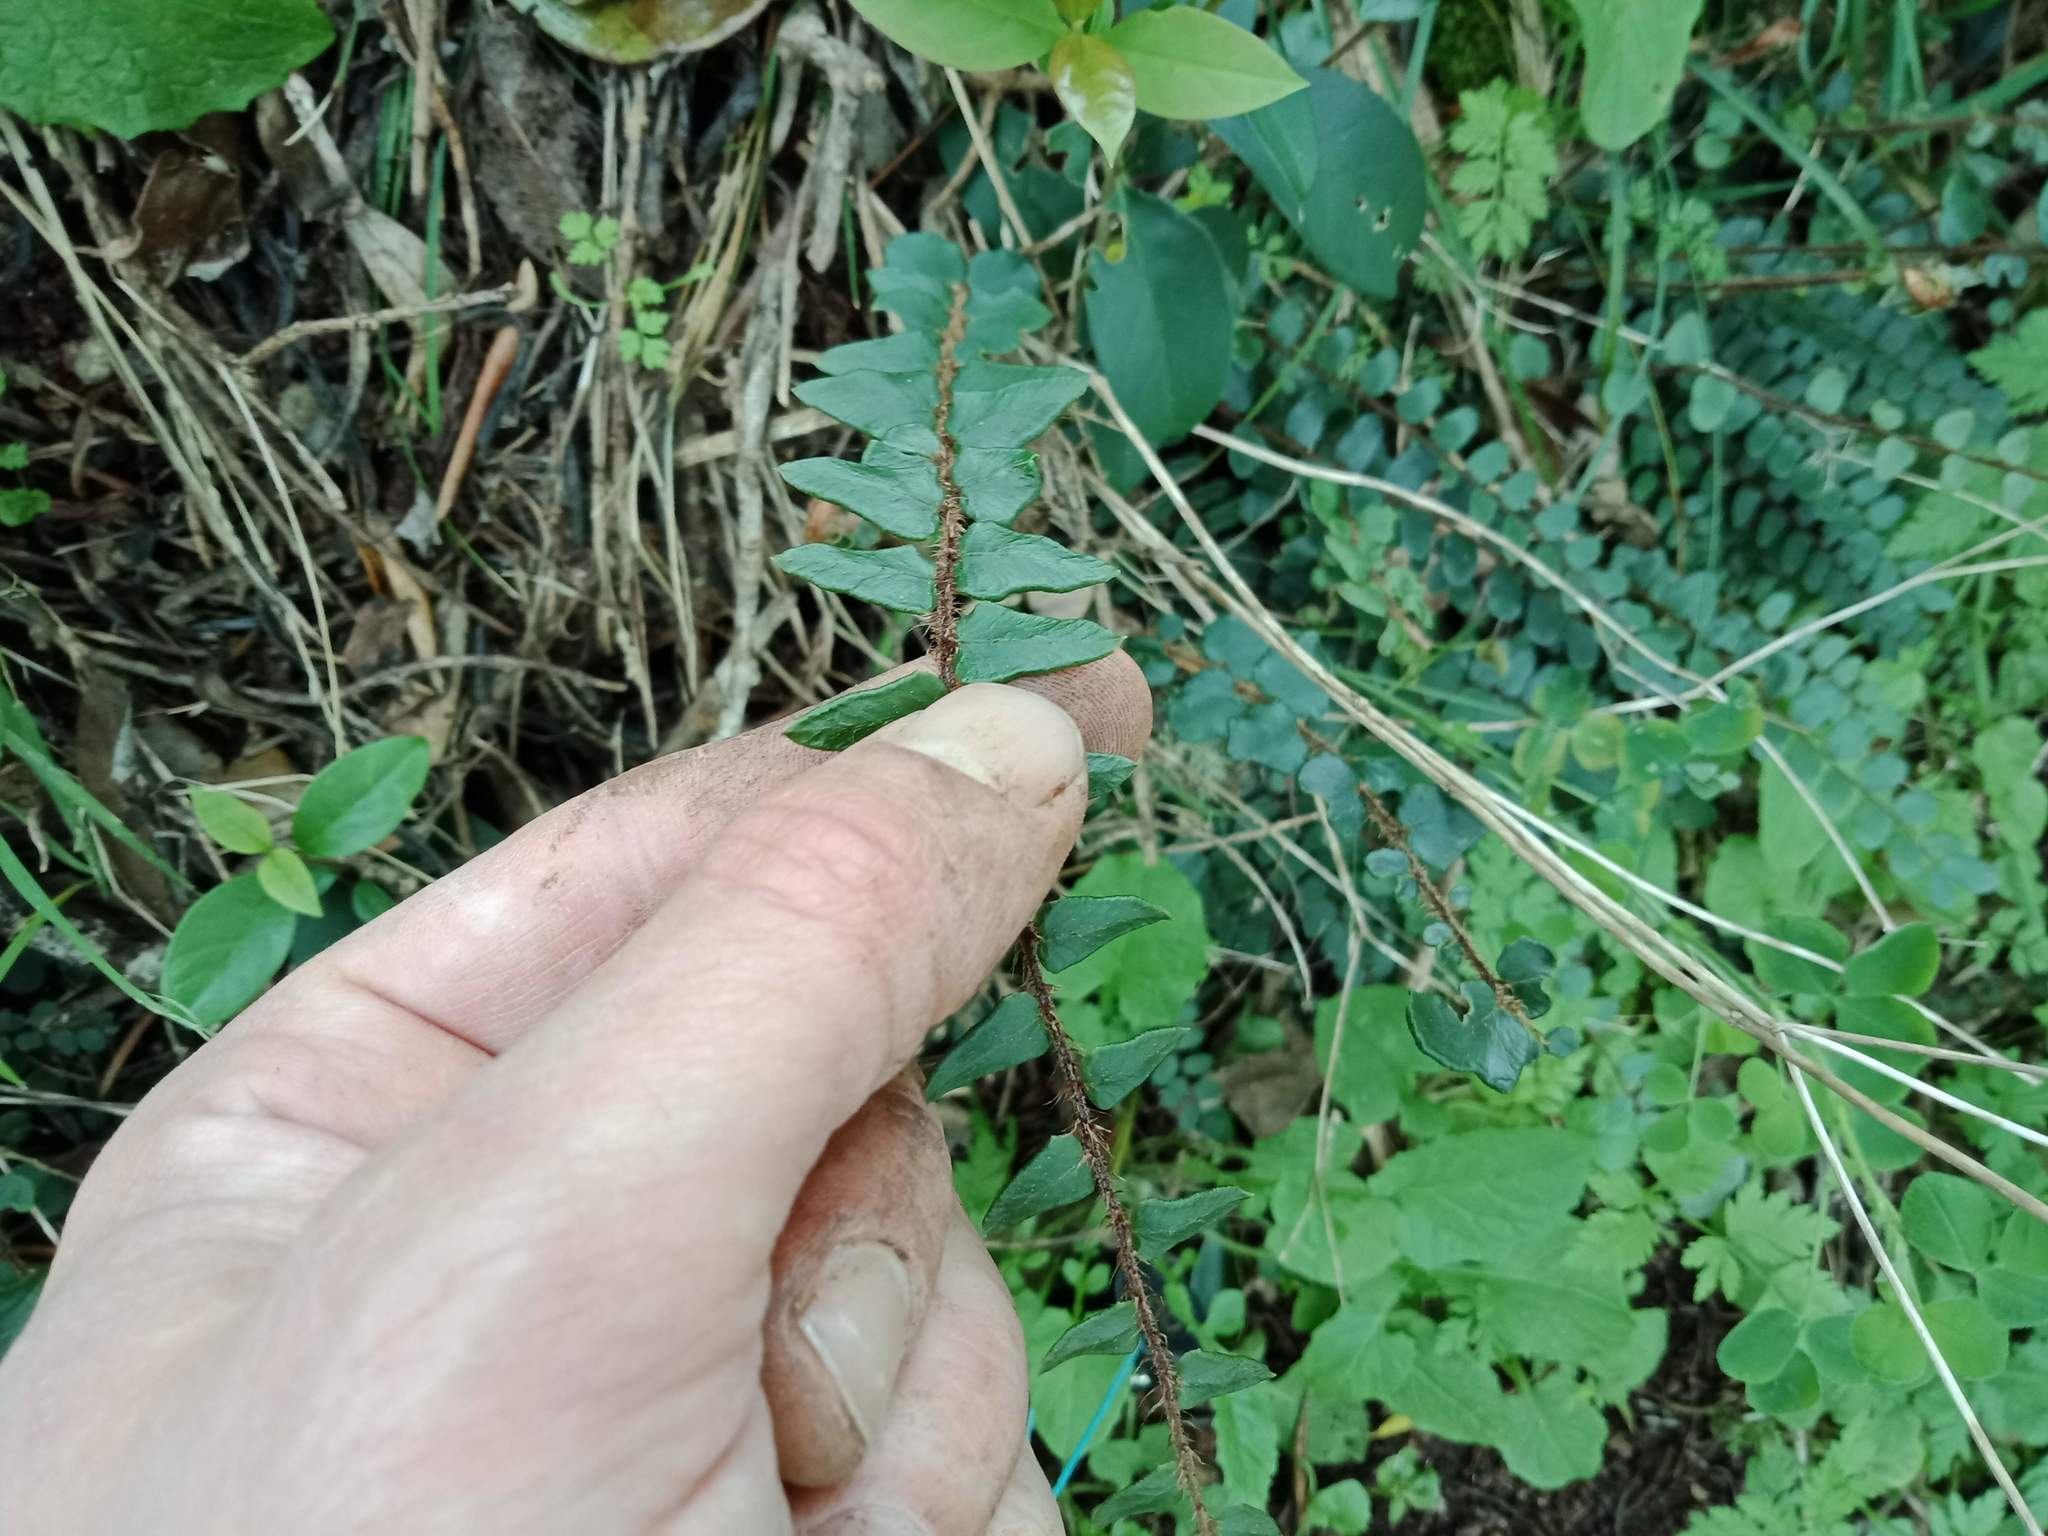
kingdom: Plantae
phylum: Tracheophyta
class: Polypodiopsida
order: Polypodiales
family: Pteridaceae
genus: Pellaea
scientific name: Pellaea rotundifolia
